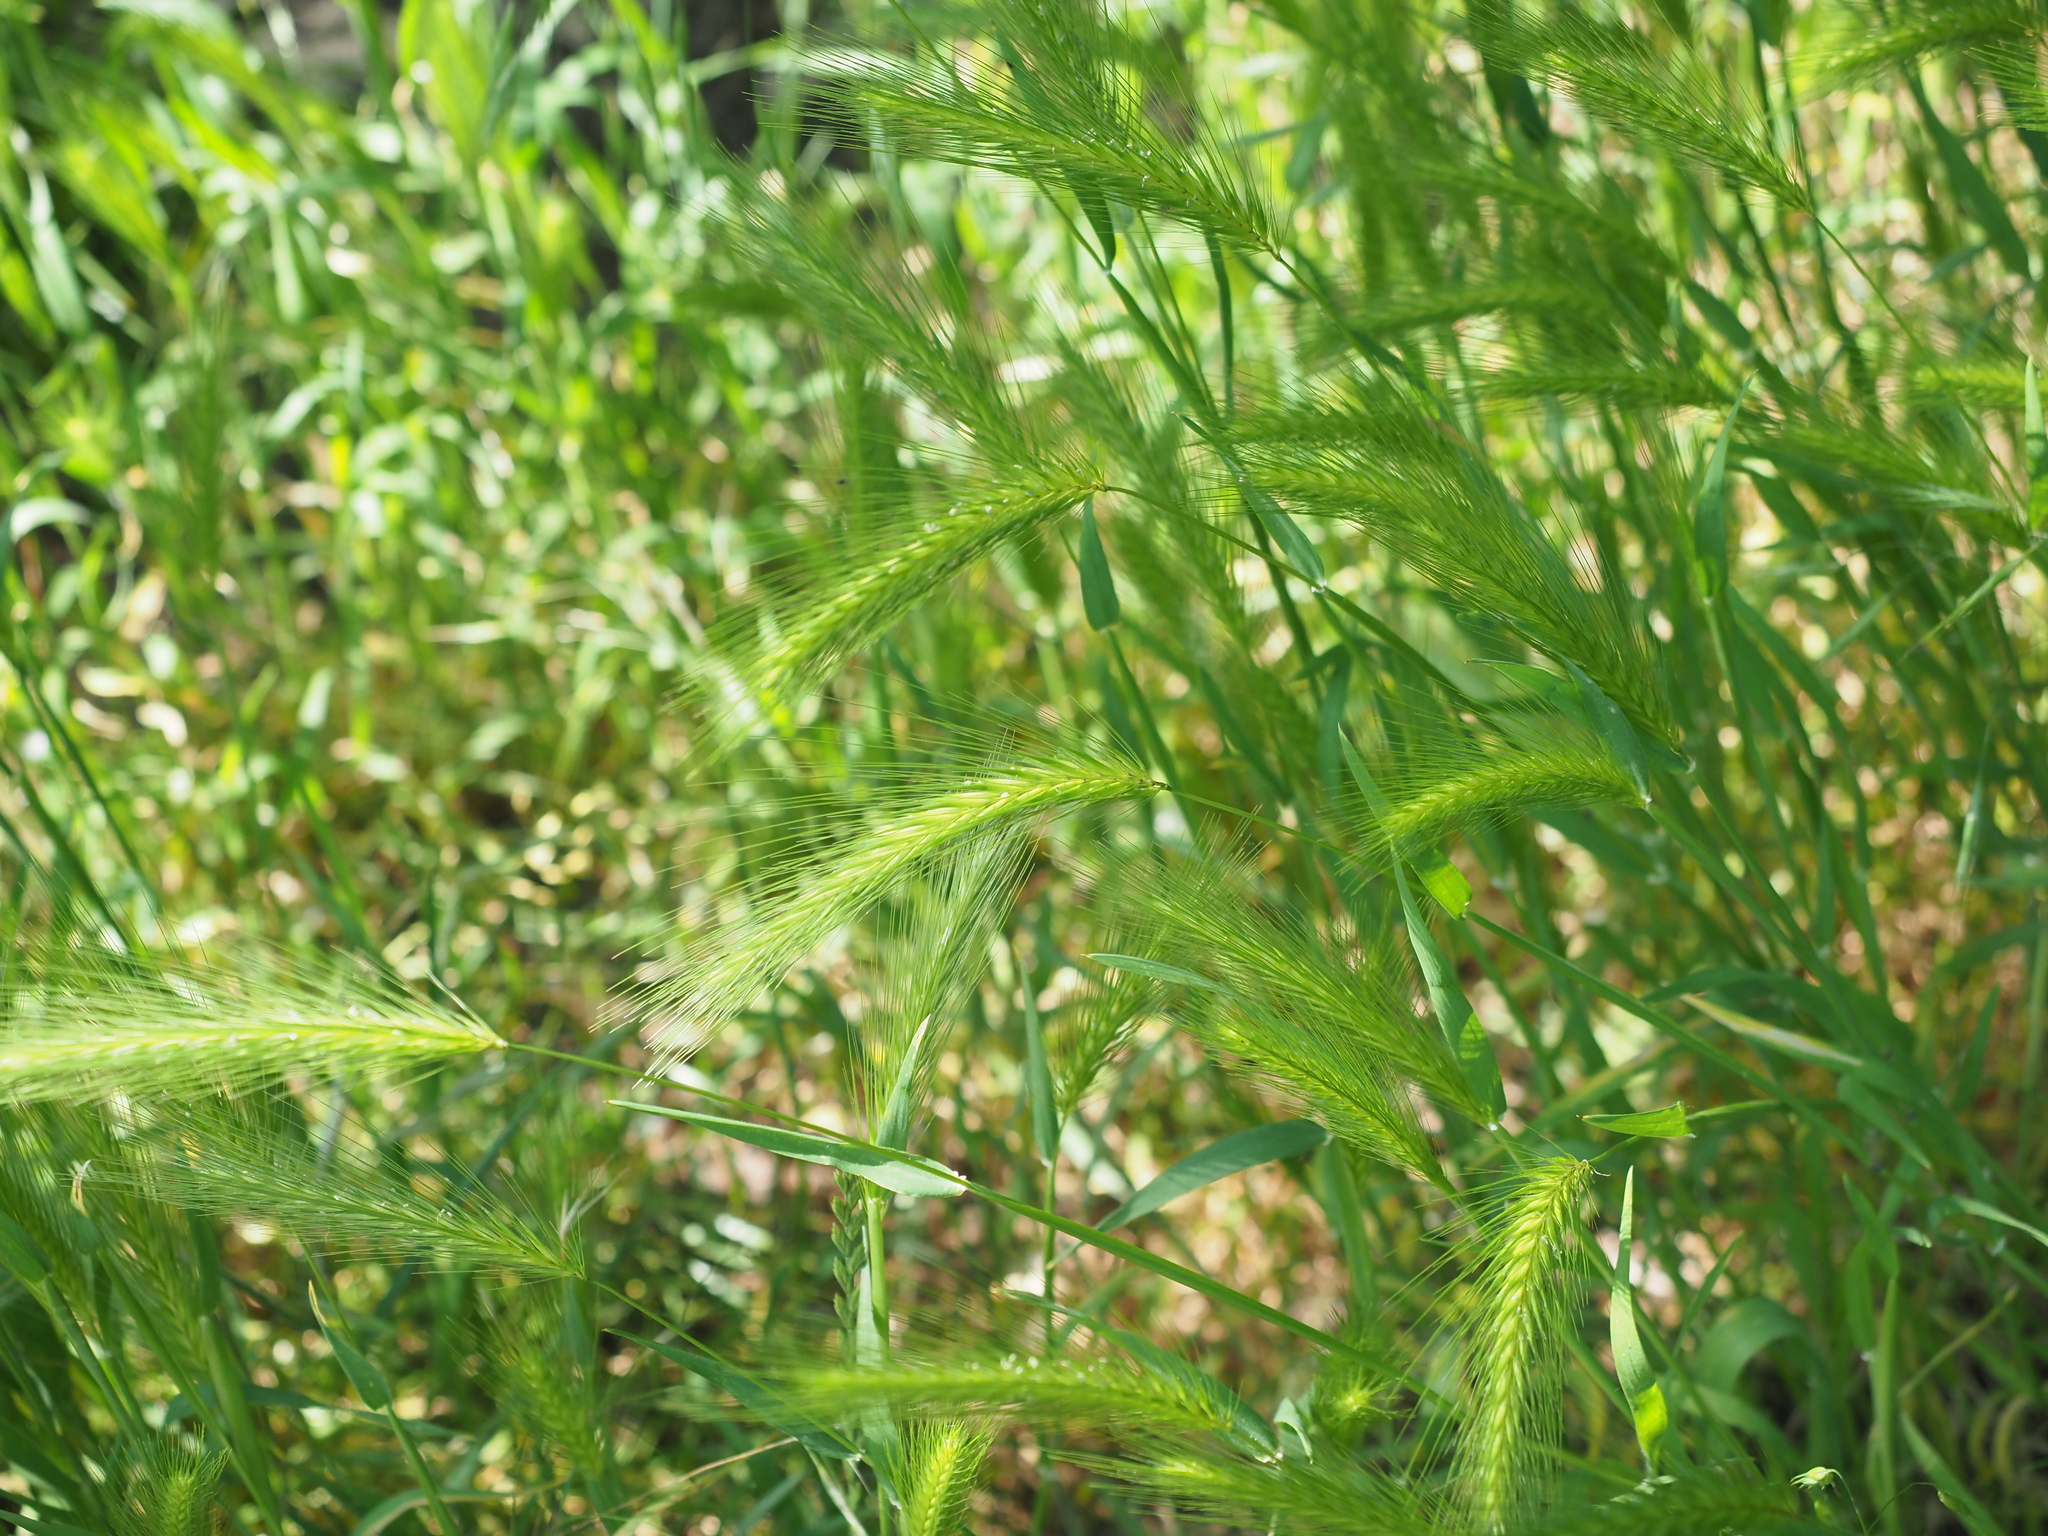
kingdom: Plantae
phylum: Tracheophyta
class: Liliopsida
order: Poales
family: Poaceae
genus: Hordeum
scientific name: Hordeum murinum
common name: Wall barley
